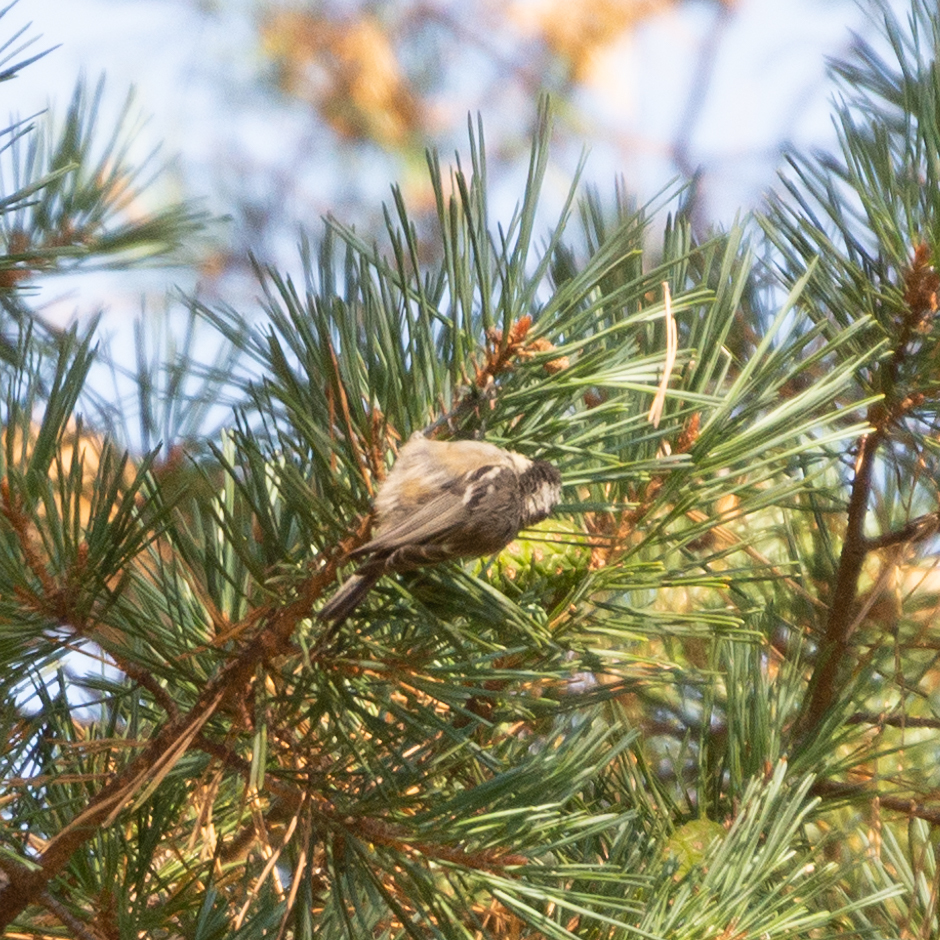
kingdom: Animalia
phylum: Chordata
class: Aves
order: Passeriformes
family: Paridae
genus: Periparus
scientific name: Periparus ater
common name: Coal tit
